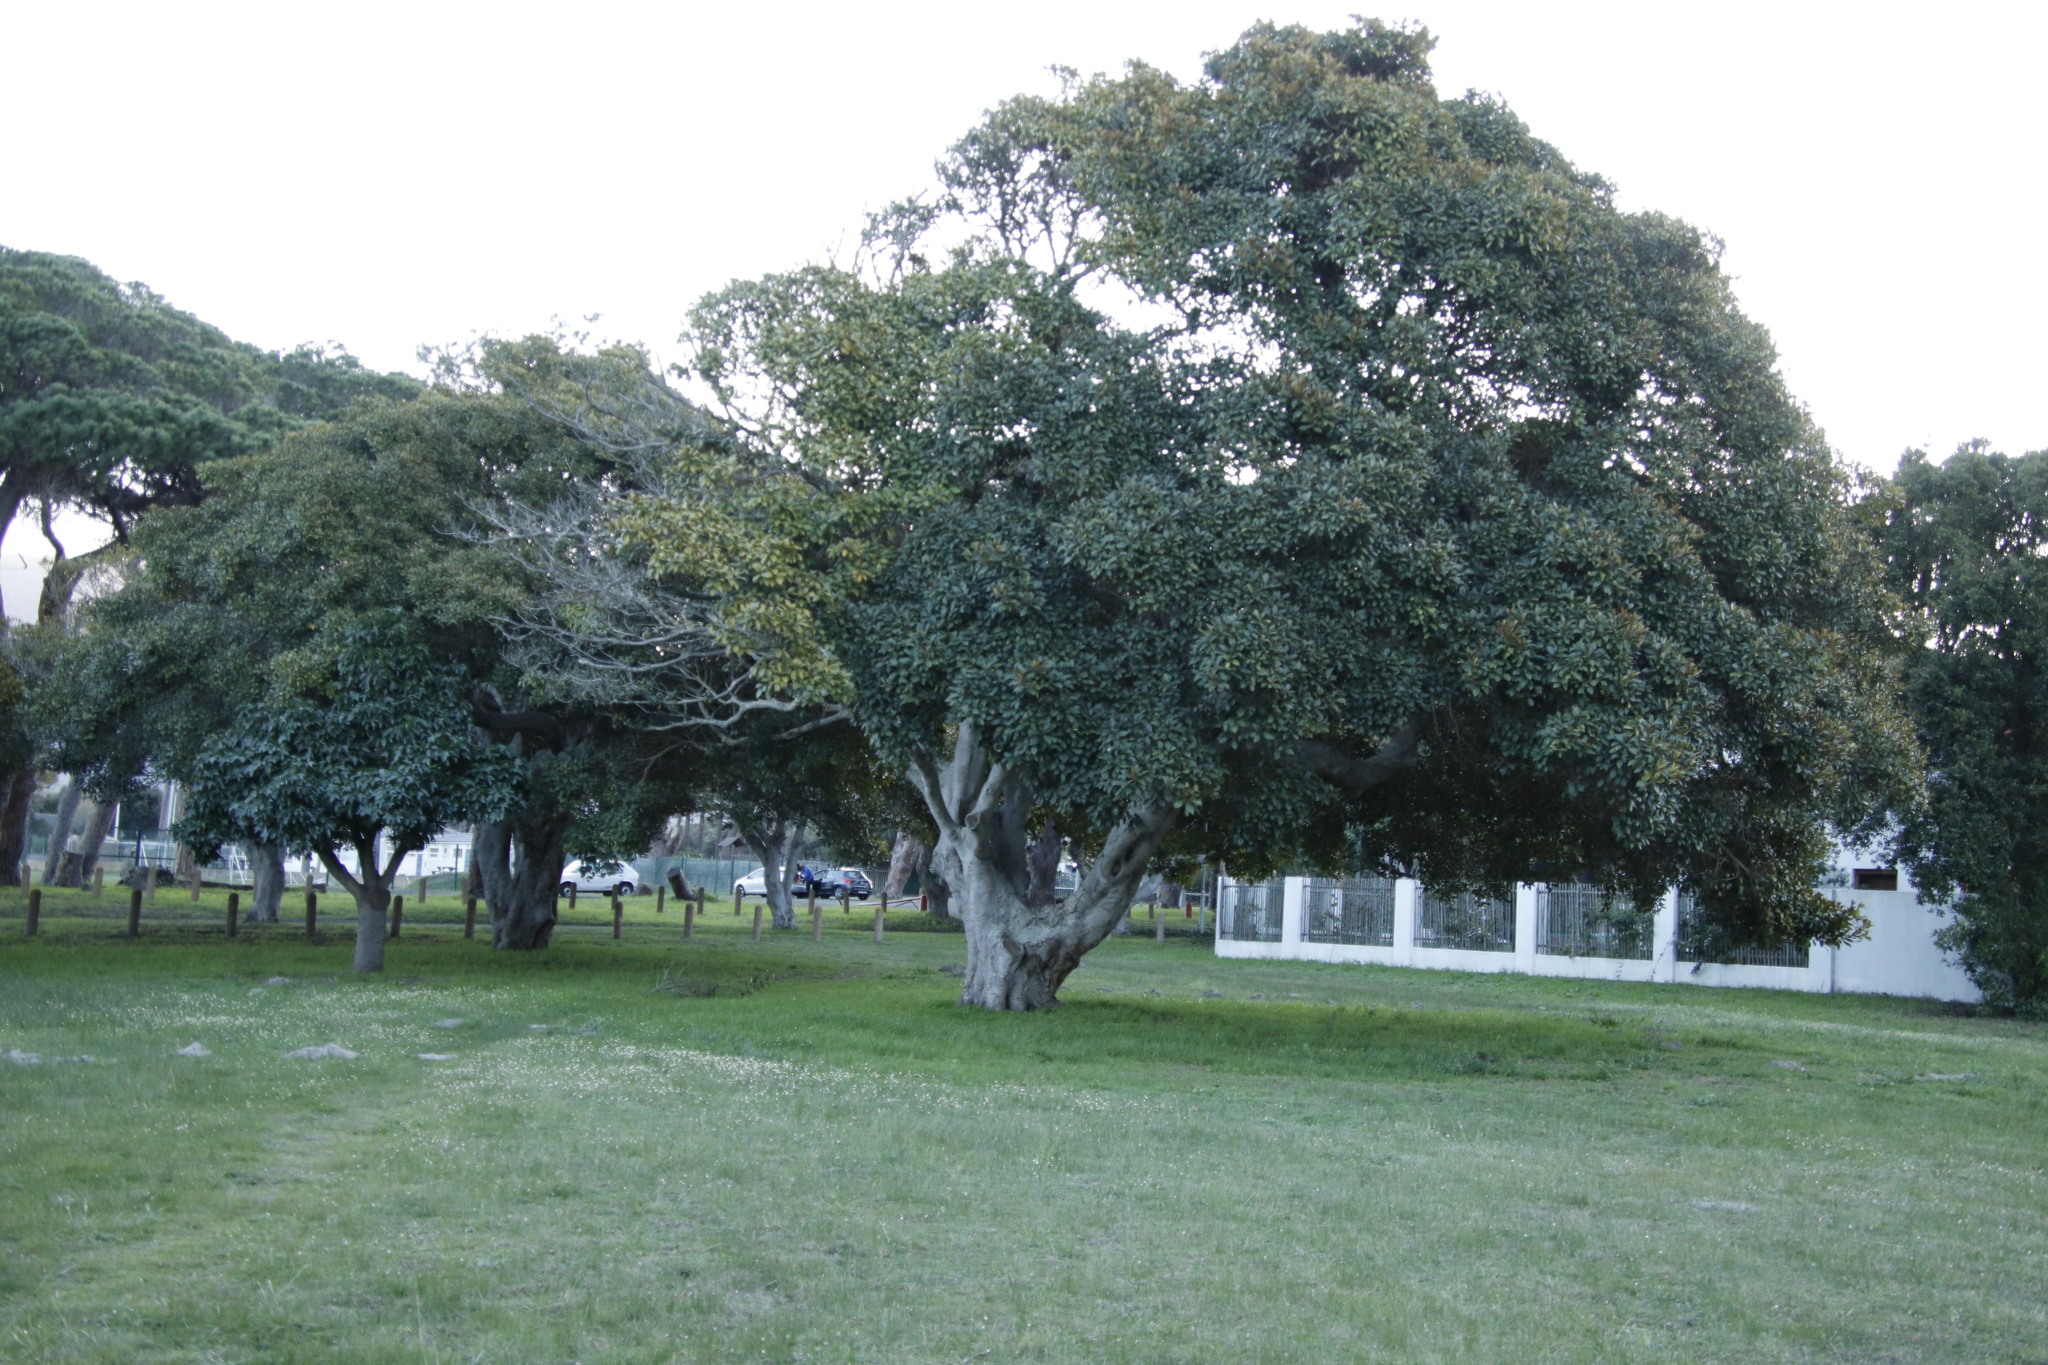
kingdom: Plantae
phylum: Tracheophyta
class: Magnoliopsida
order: Asterales
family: Asteraceae
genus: Cotula
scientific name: Cotula turbinata
